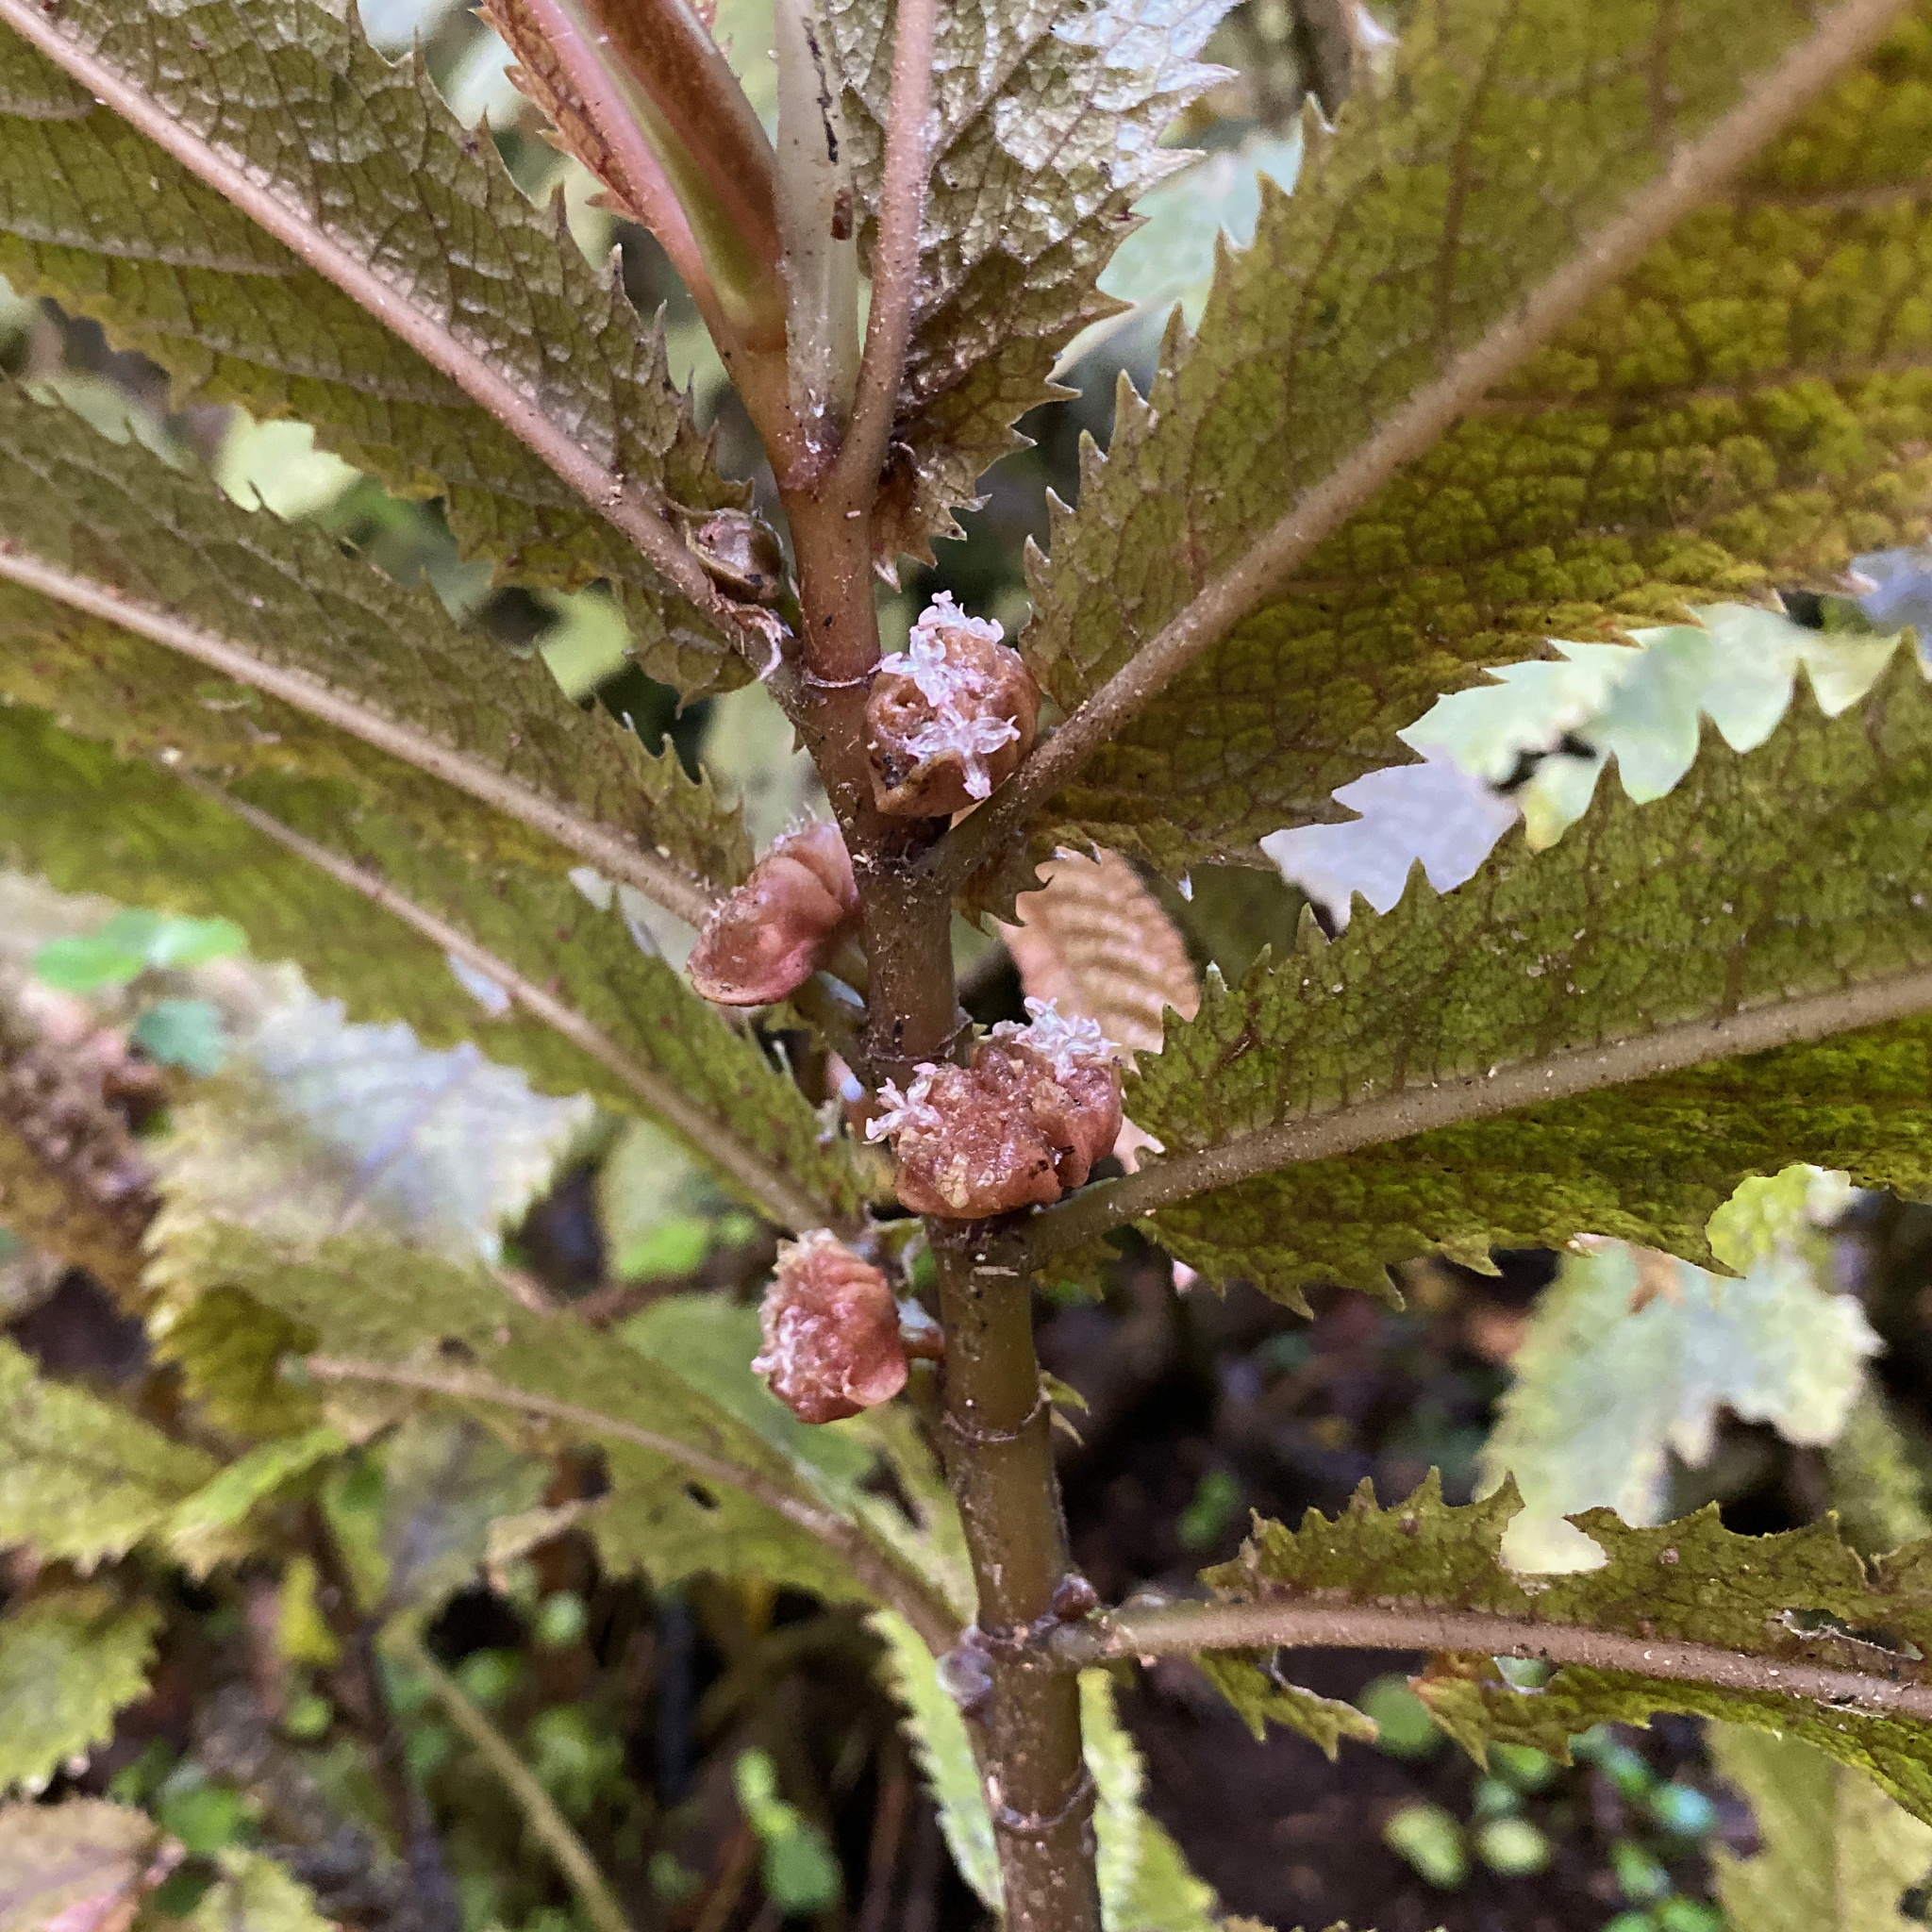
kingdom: Plantae
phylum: Tracheophyta
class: Magnoliopsida
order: Rosales
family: Urticaceae
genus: Elatostema
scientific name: Elatostema rugosum
